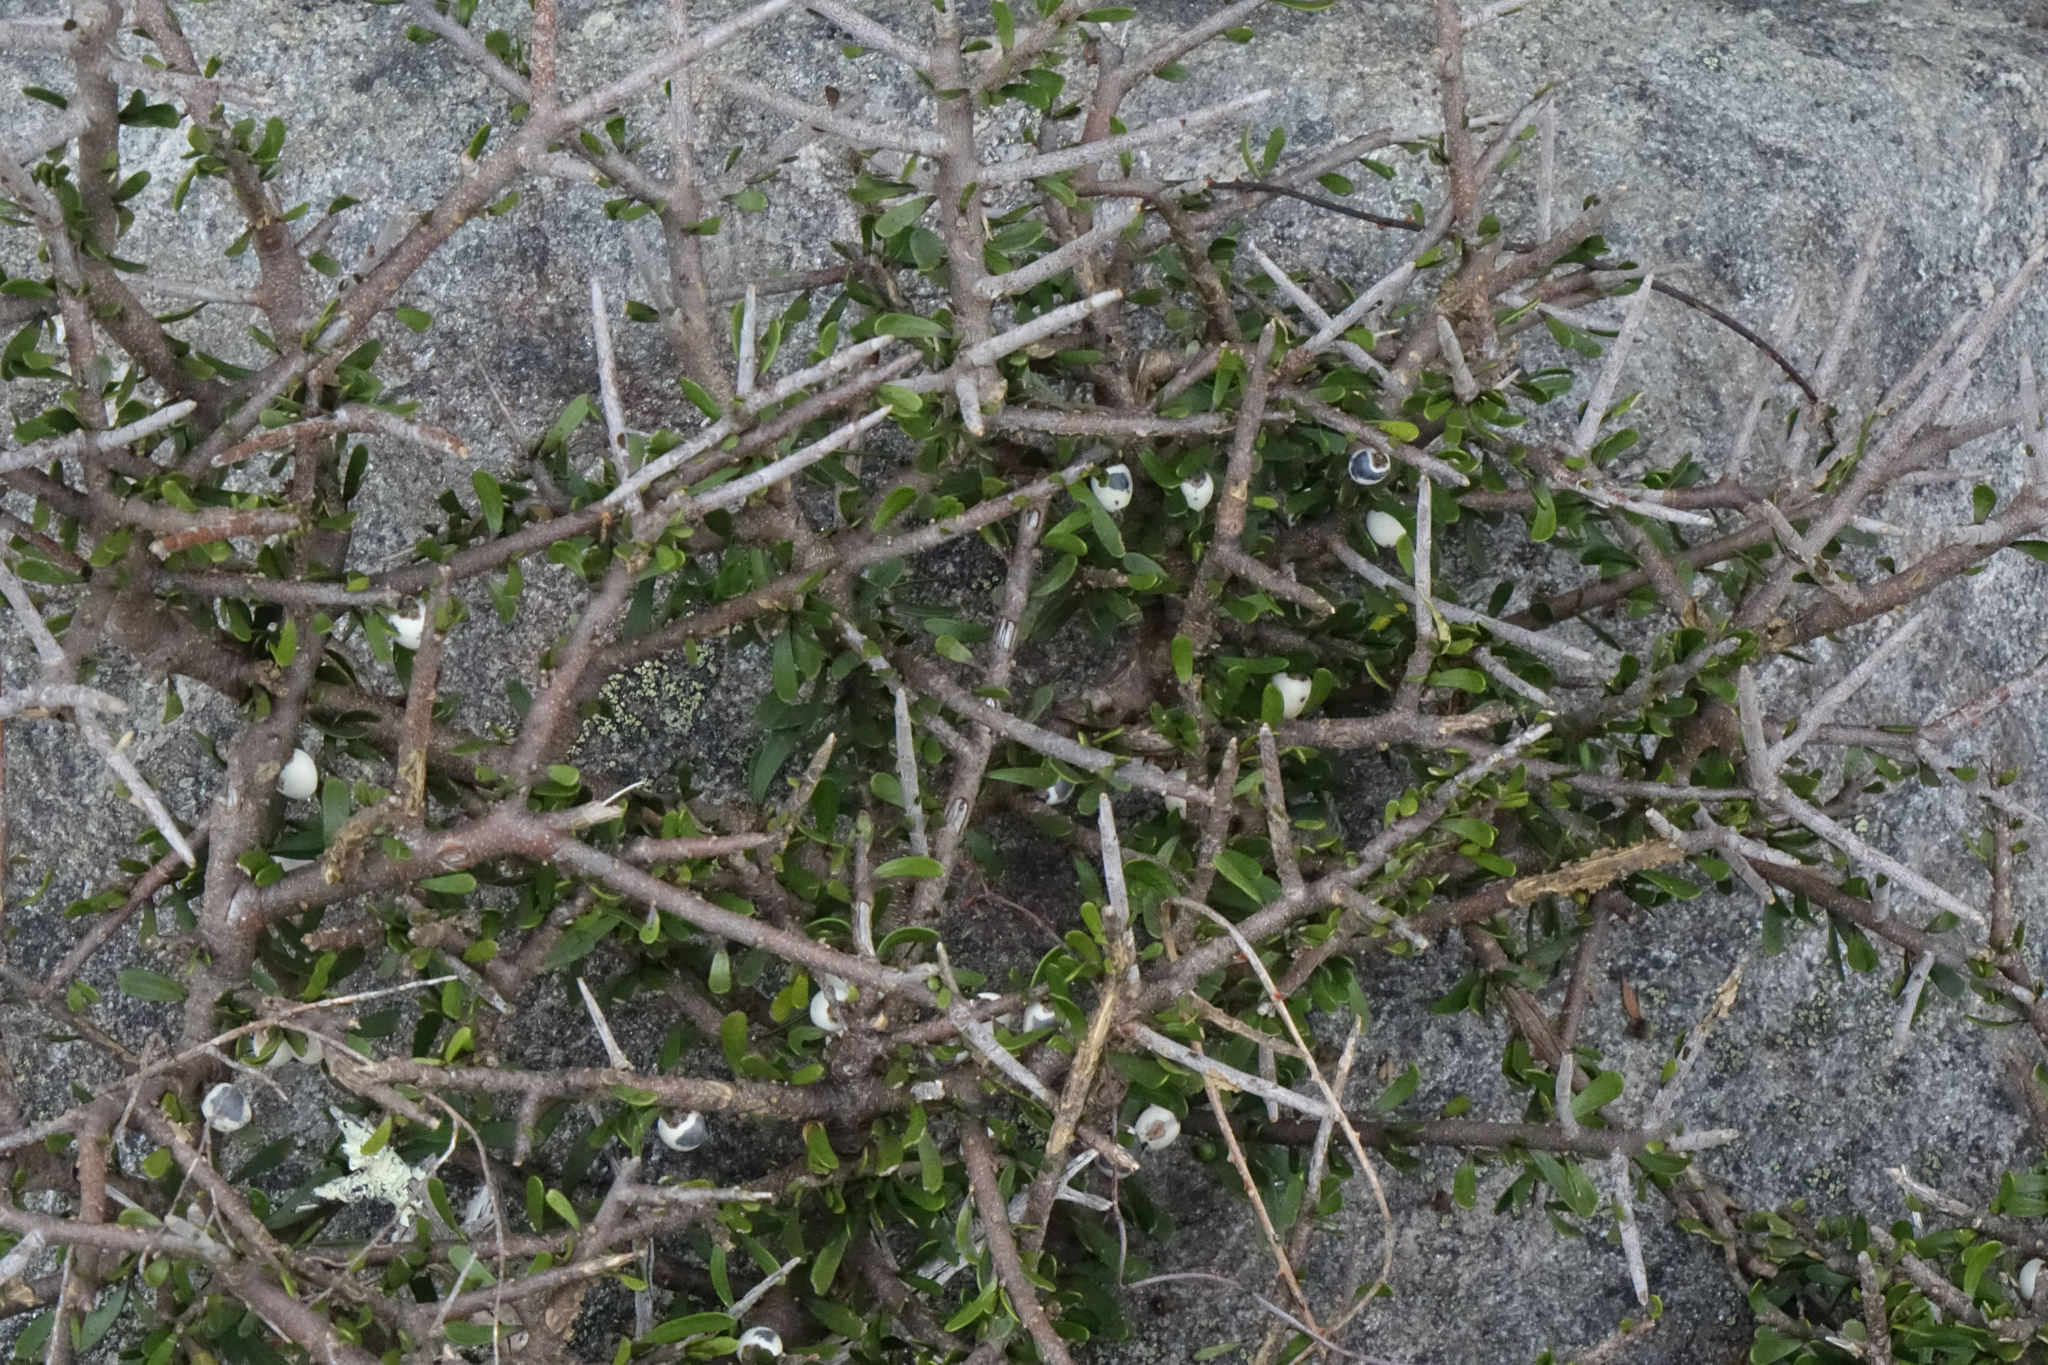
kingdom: Plantae
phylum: Tracheophyta
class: Magnoliopsida
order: Malpighiales
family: Violaceae
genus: Melicytus
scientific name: Melicytus alpinus
